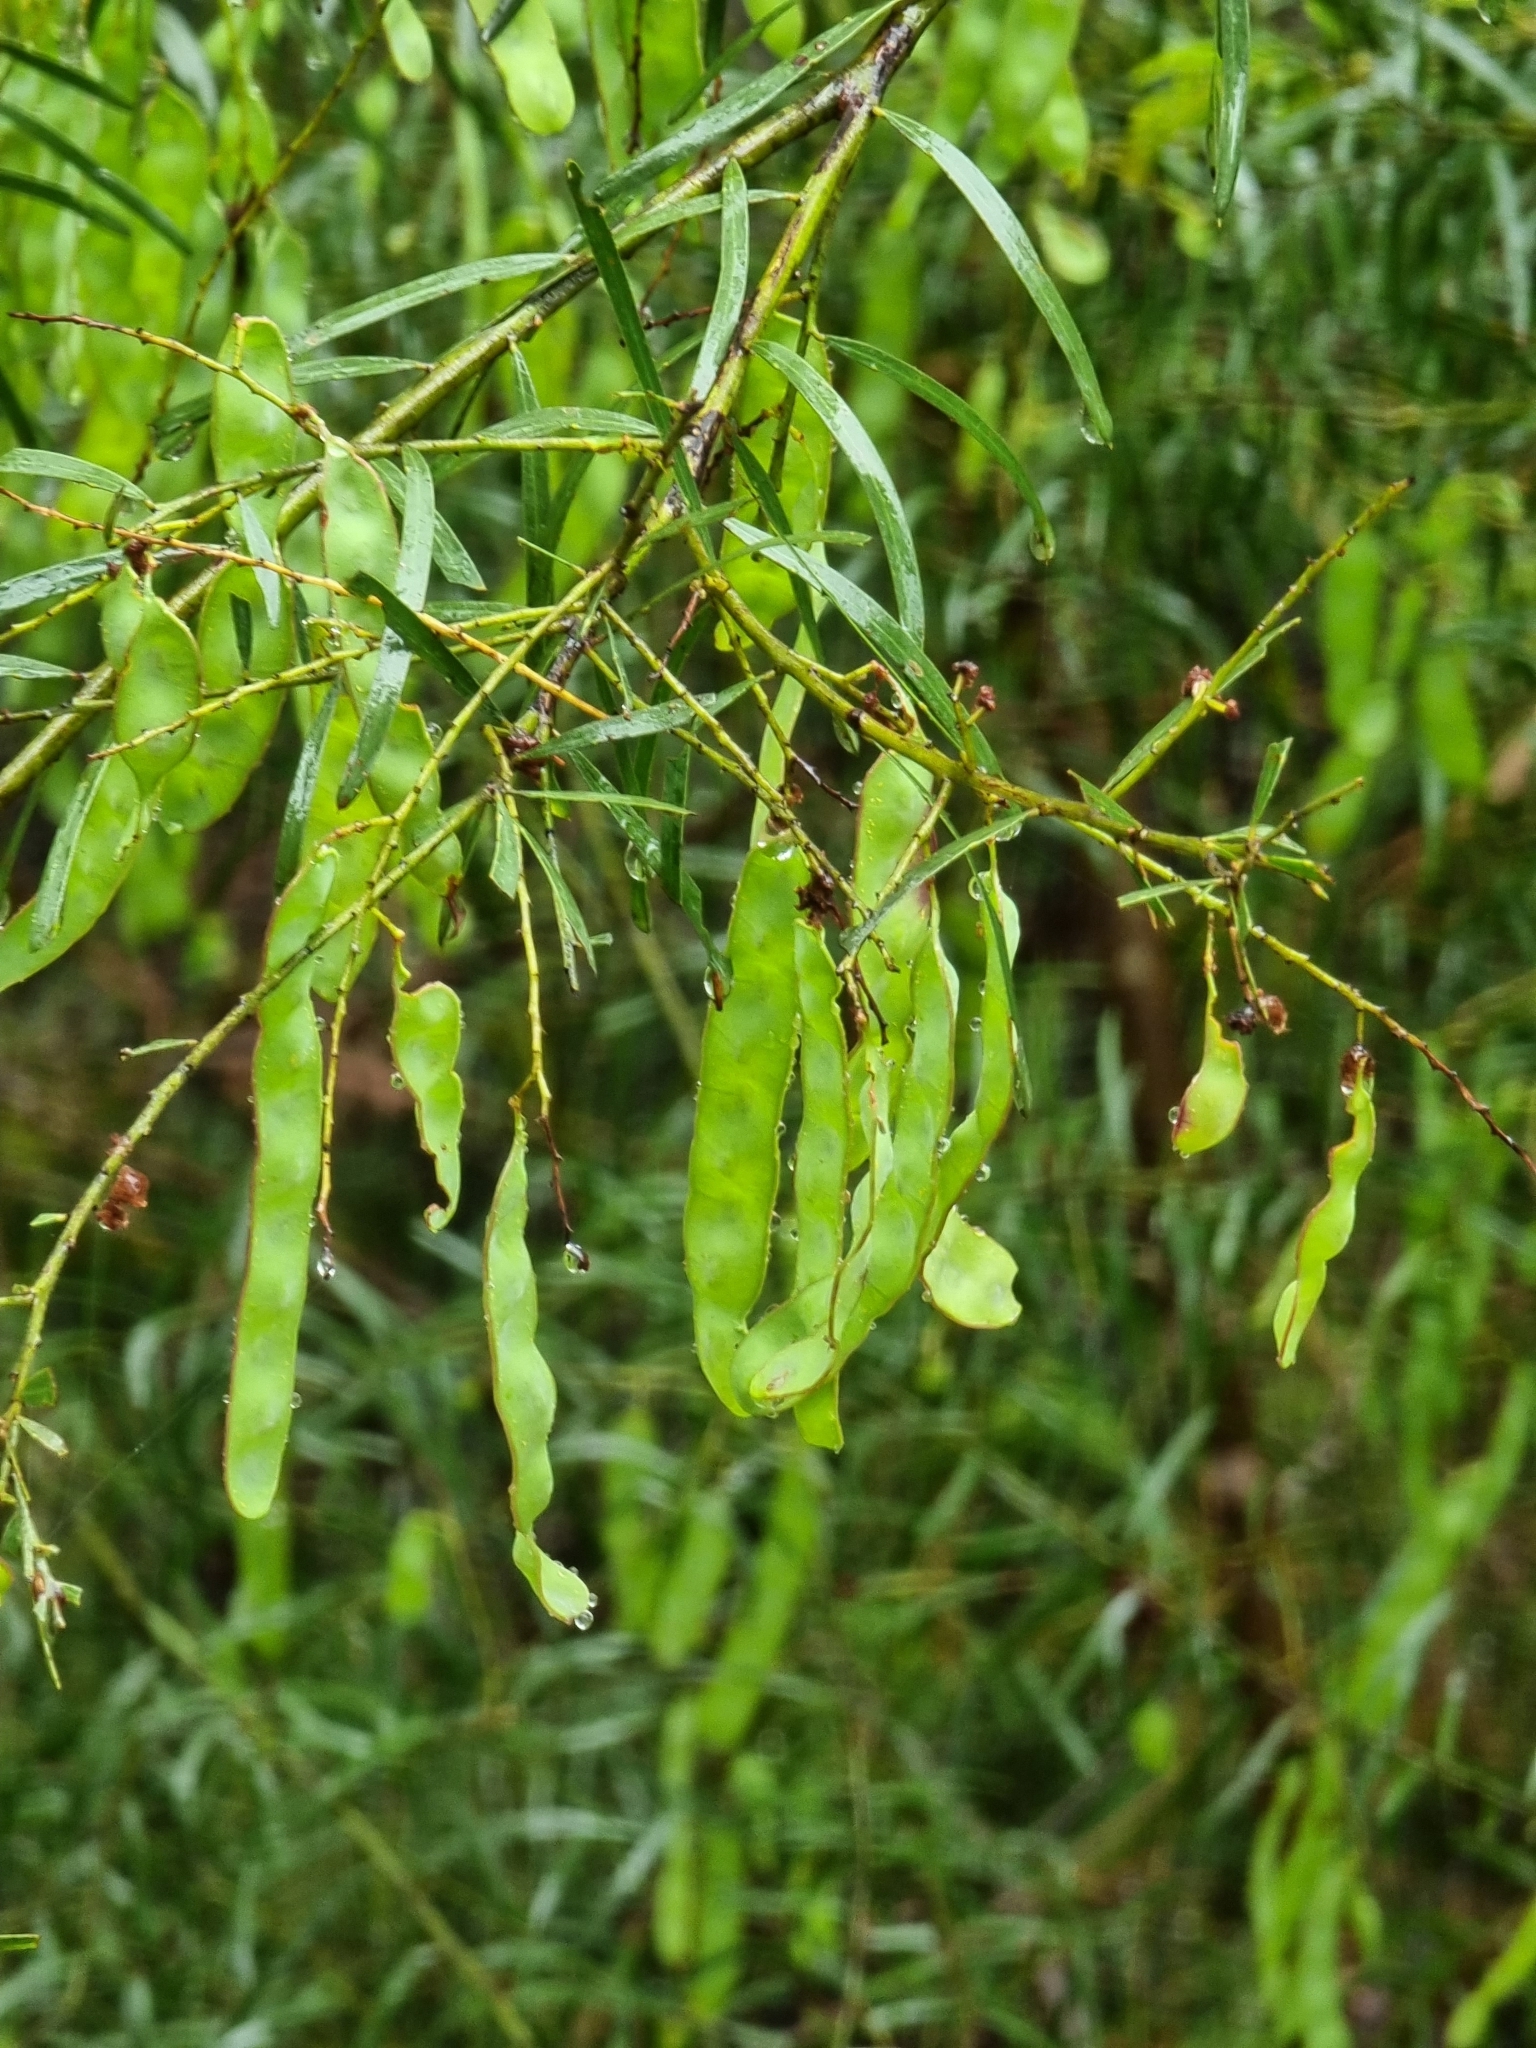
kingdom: Plantae
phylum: Tracheophyta
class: Magnoliopsida
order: Fabales
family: Fabaceae
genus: Acacia
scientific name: Acacia fimbriata
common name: Brisbane golden wattle
